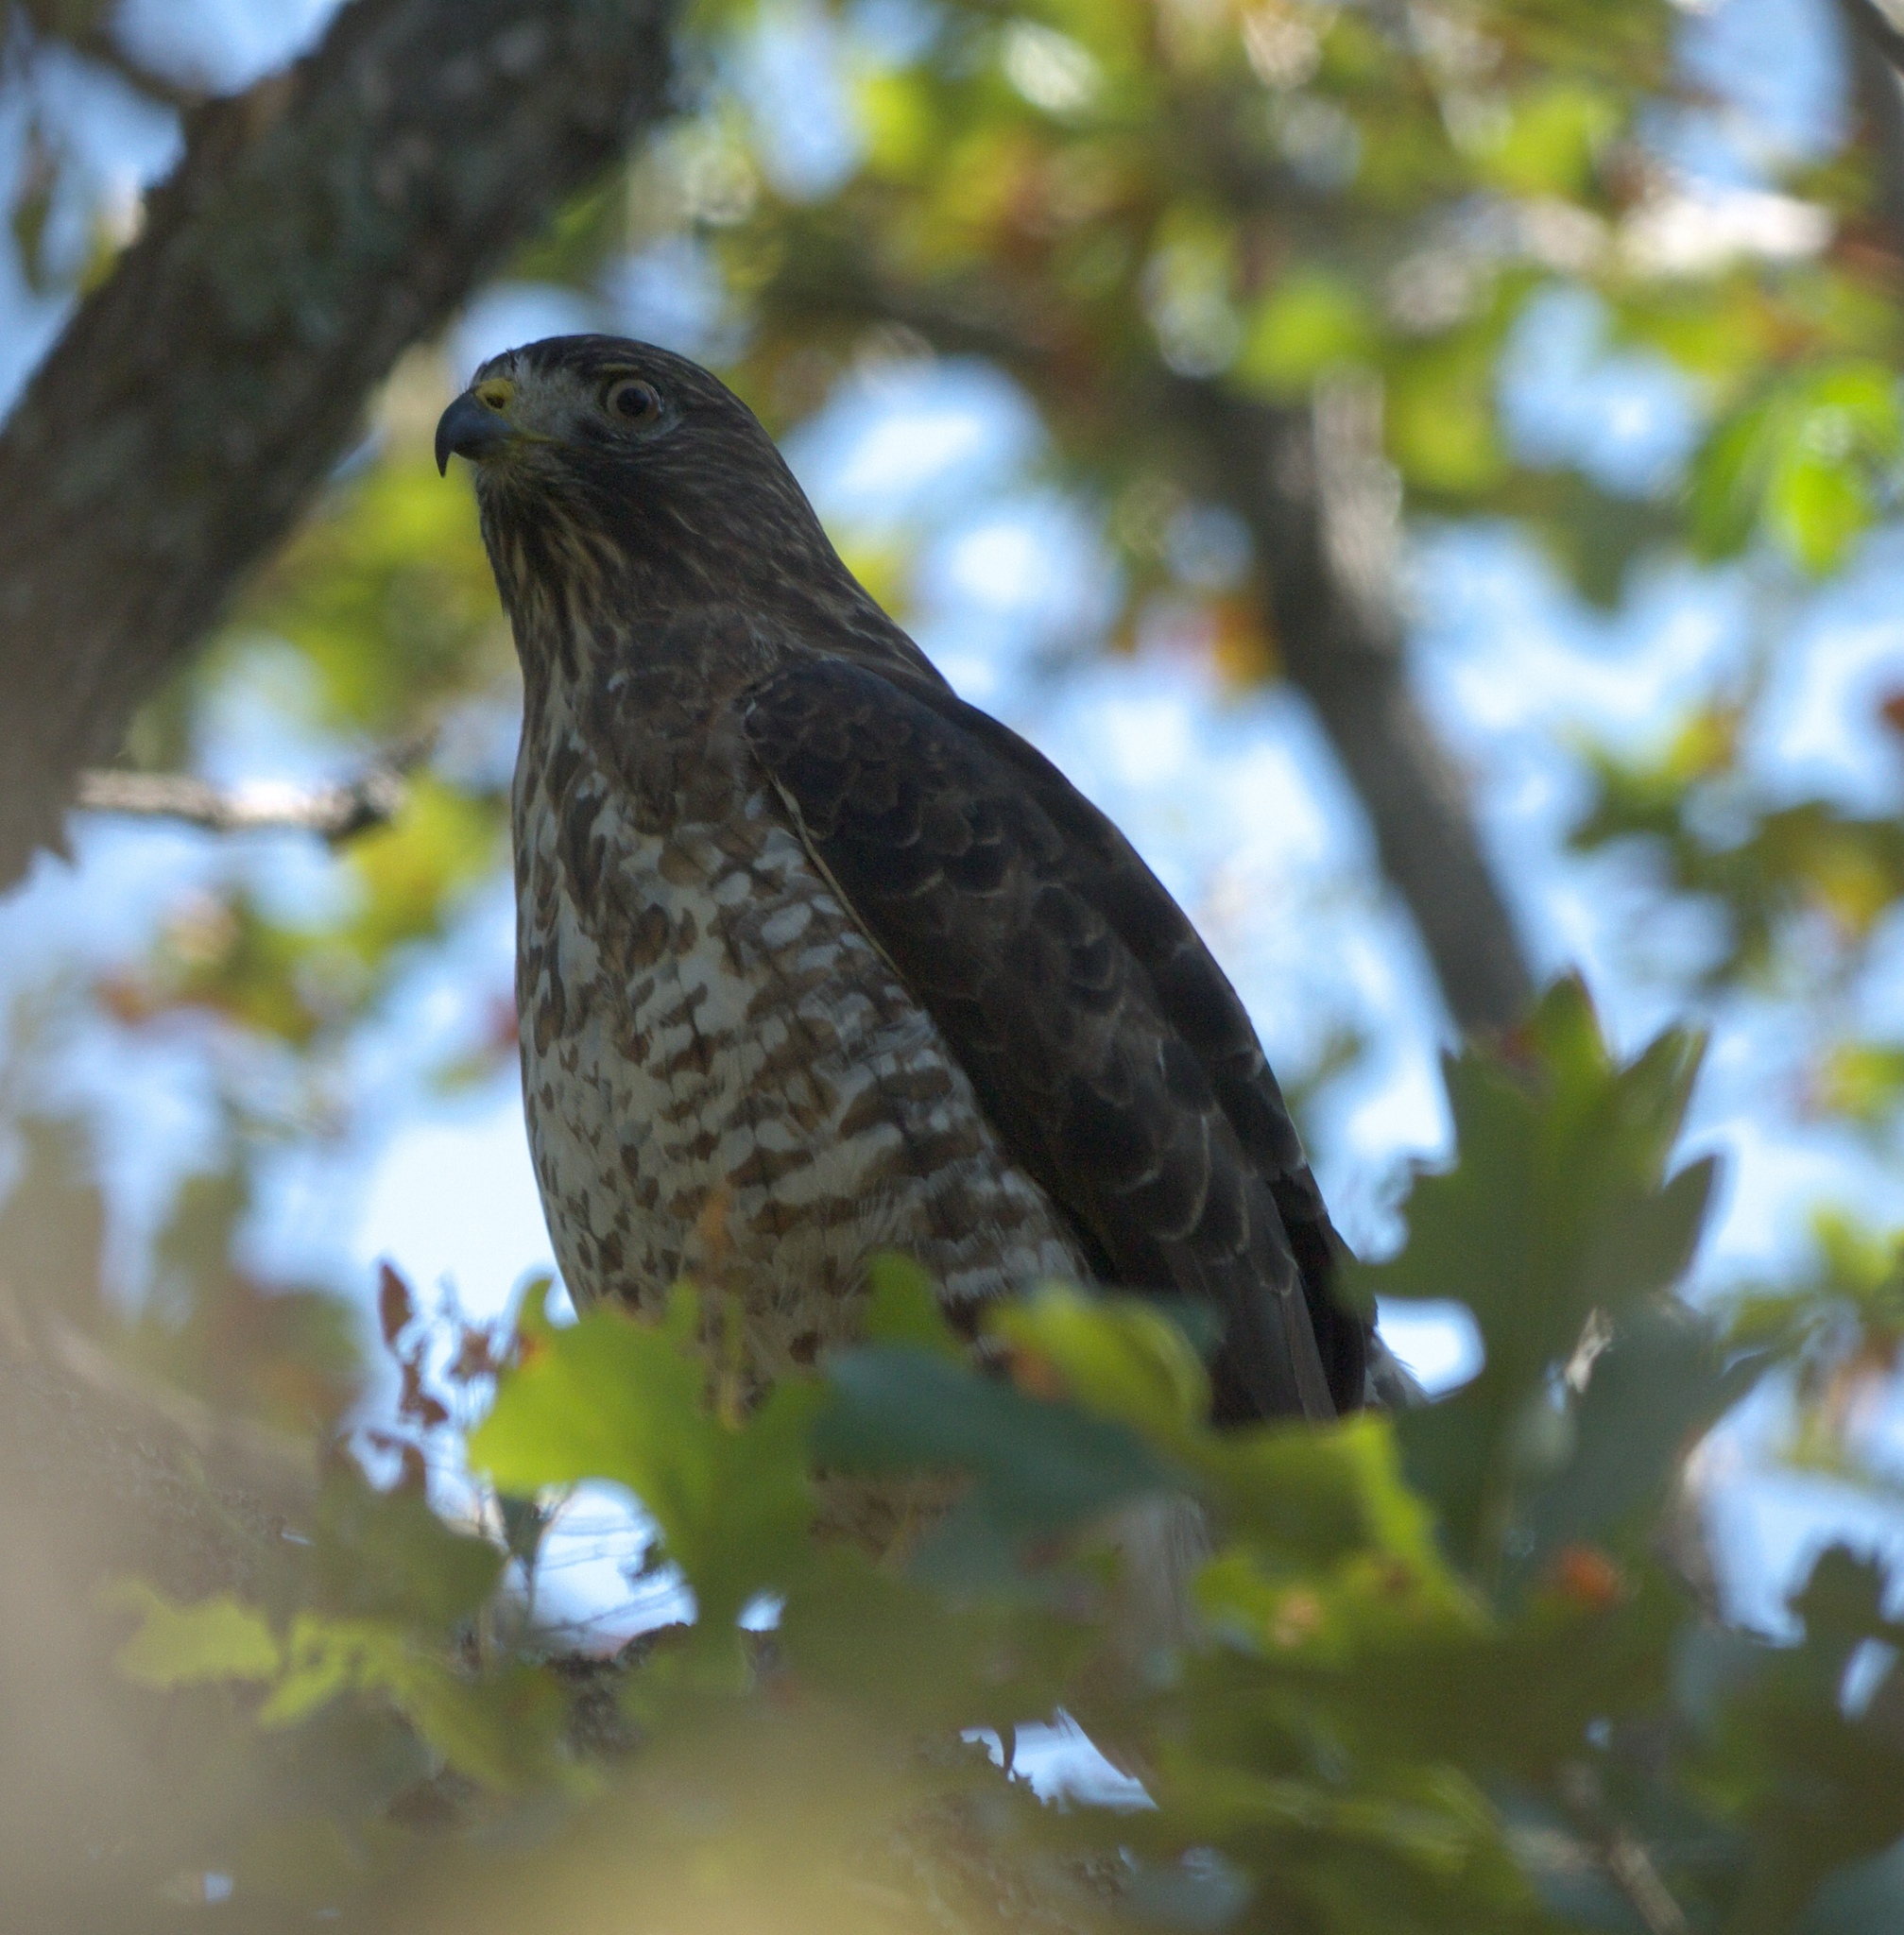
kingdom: Animalia
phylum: Chordata
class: Aves
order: Accipitriformes
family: Accipitridae
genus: Buteo
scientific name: Buteo platypterus
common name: Broad-winged hawk
